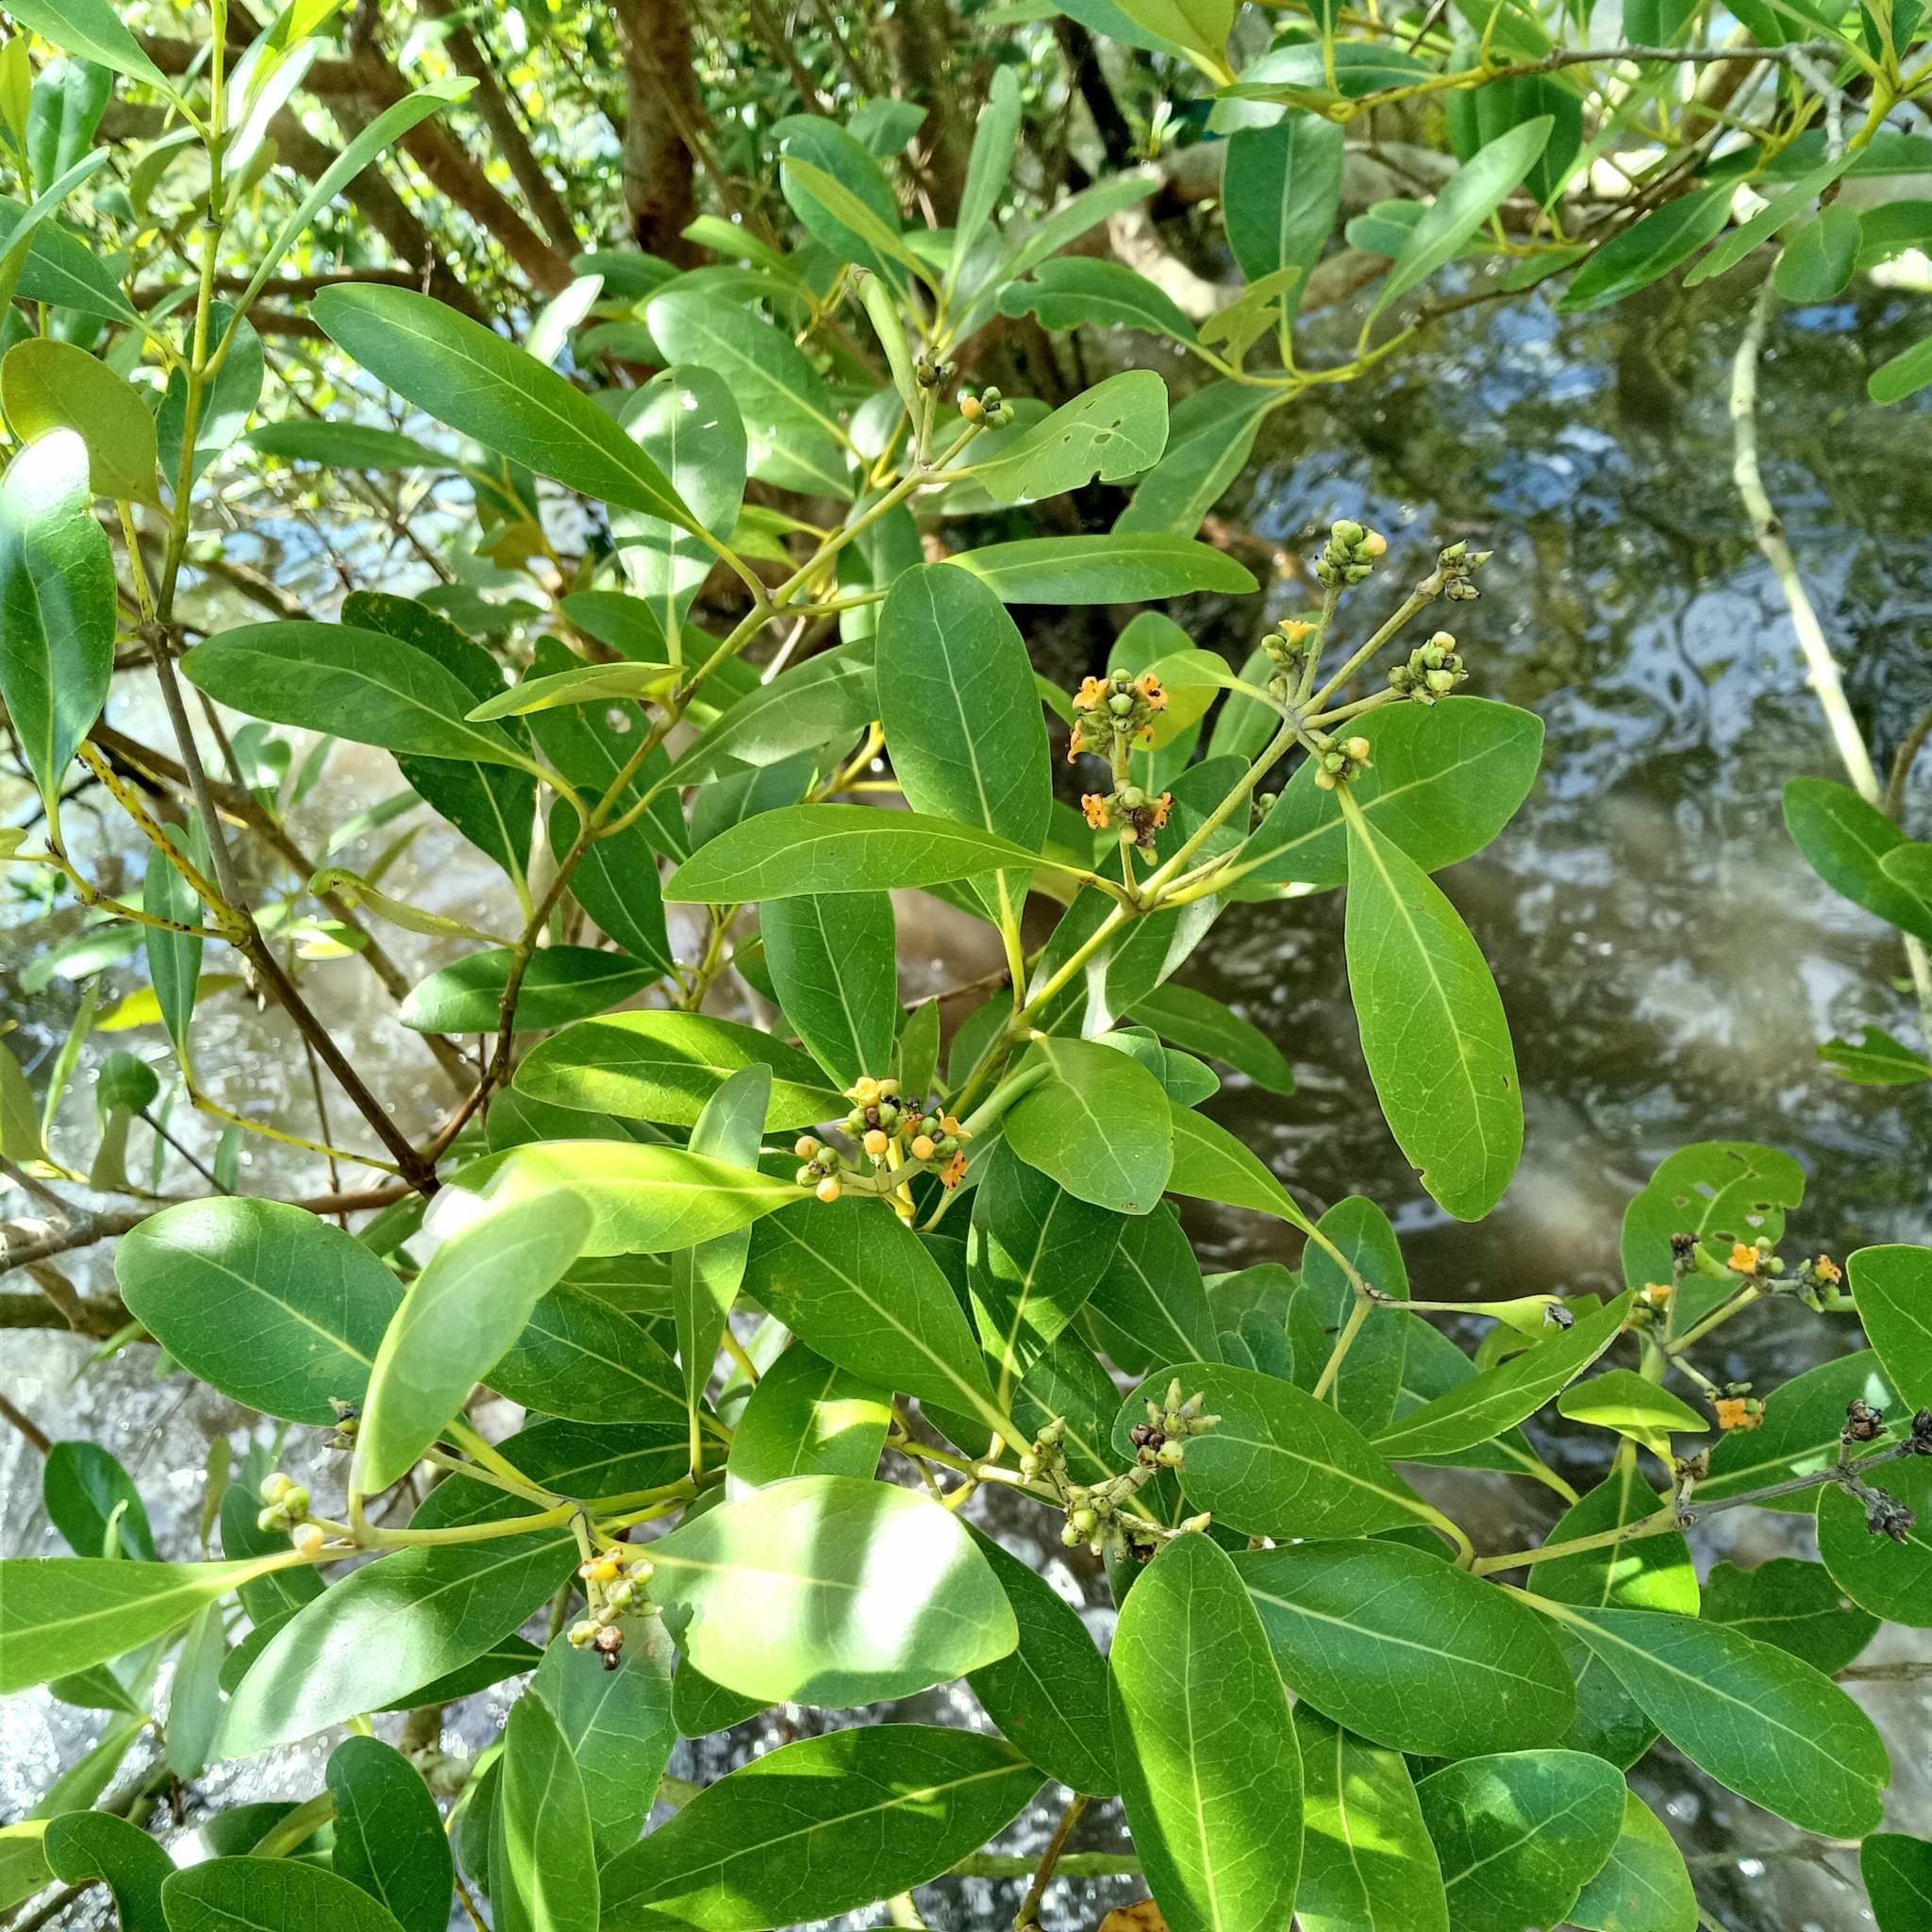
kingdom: Plantae
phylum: Tracheophyta
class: Magnoliopsida
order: Lamiales
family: Acanthaceae
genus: Avicennia
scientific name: Avicennia marina
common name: Gray mangrove
